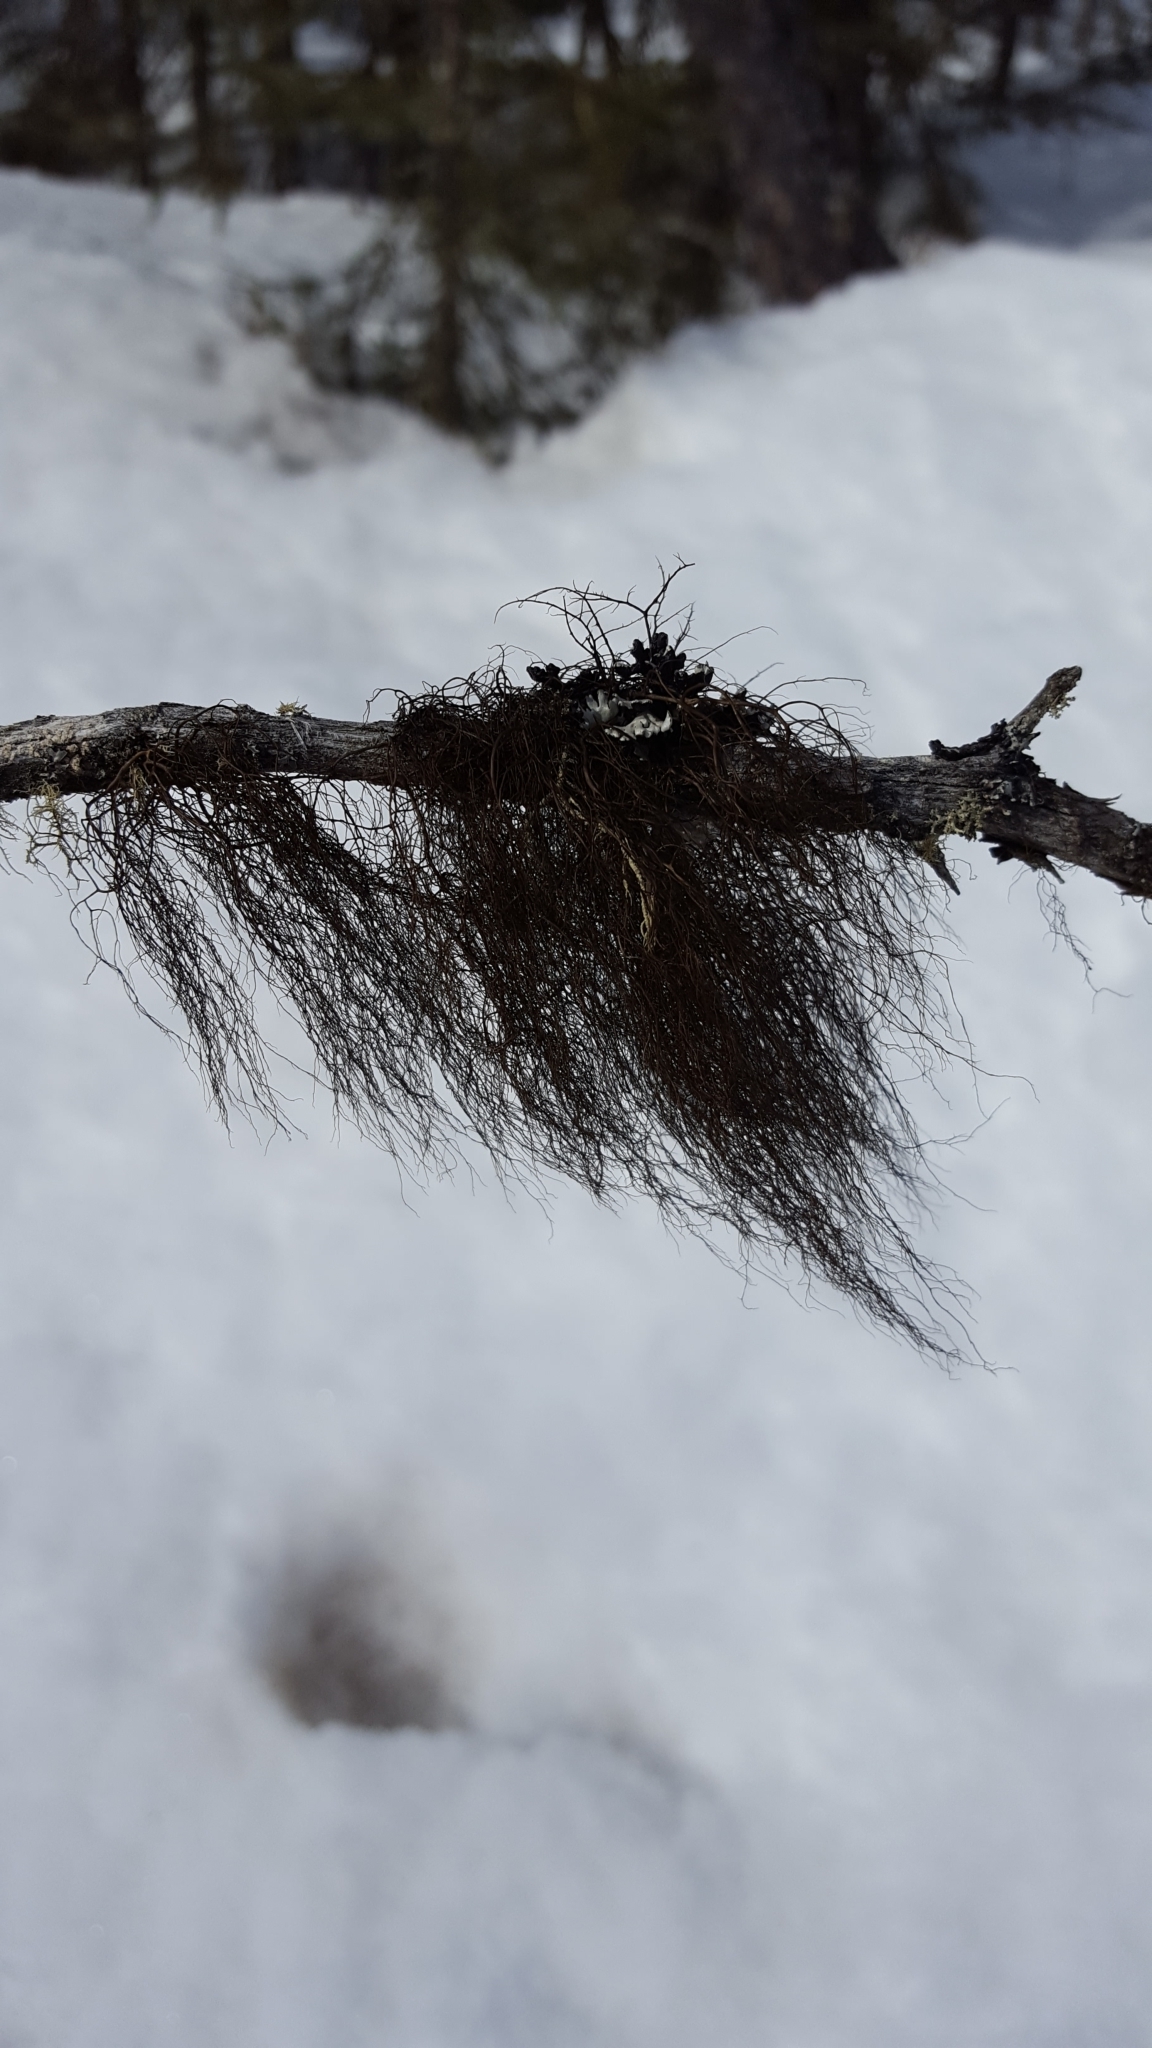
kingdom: Fungi
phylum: Ascomycota
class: Lecanoromycetes
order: Lecanorales
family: Parmeliaceae
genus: Bryoria
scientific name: Bryoria trichodes
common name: Inelegant horsehair lichen
